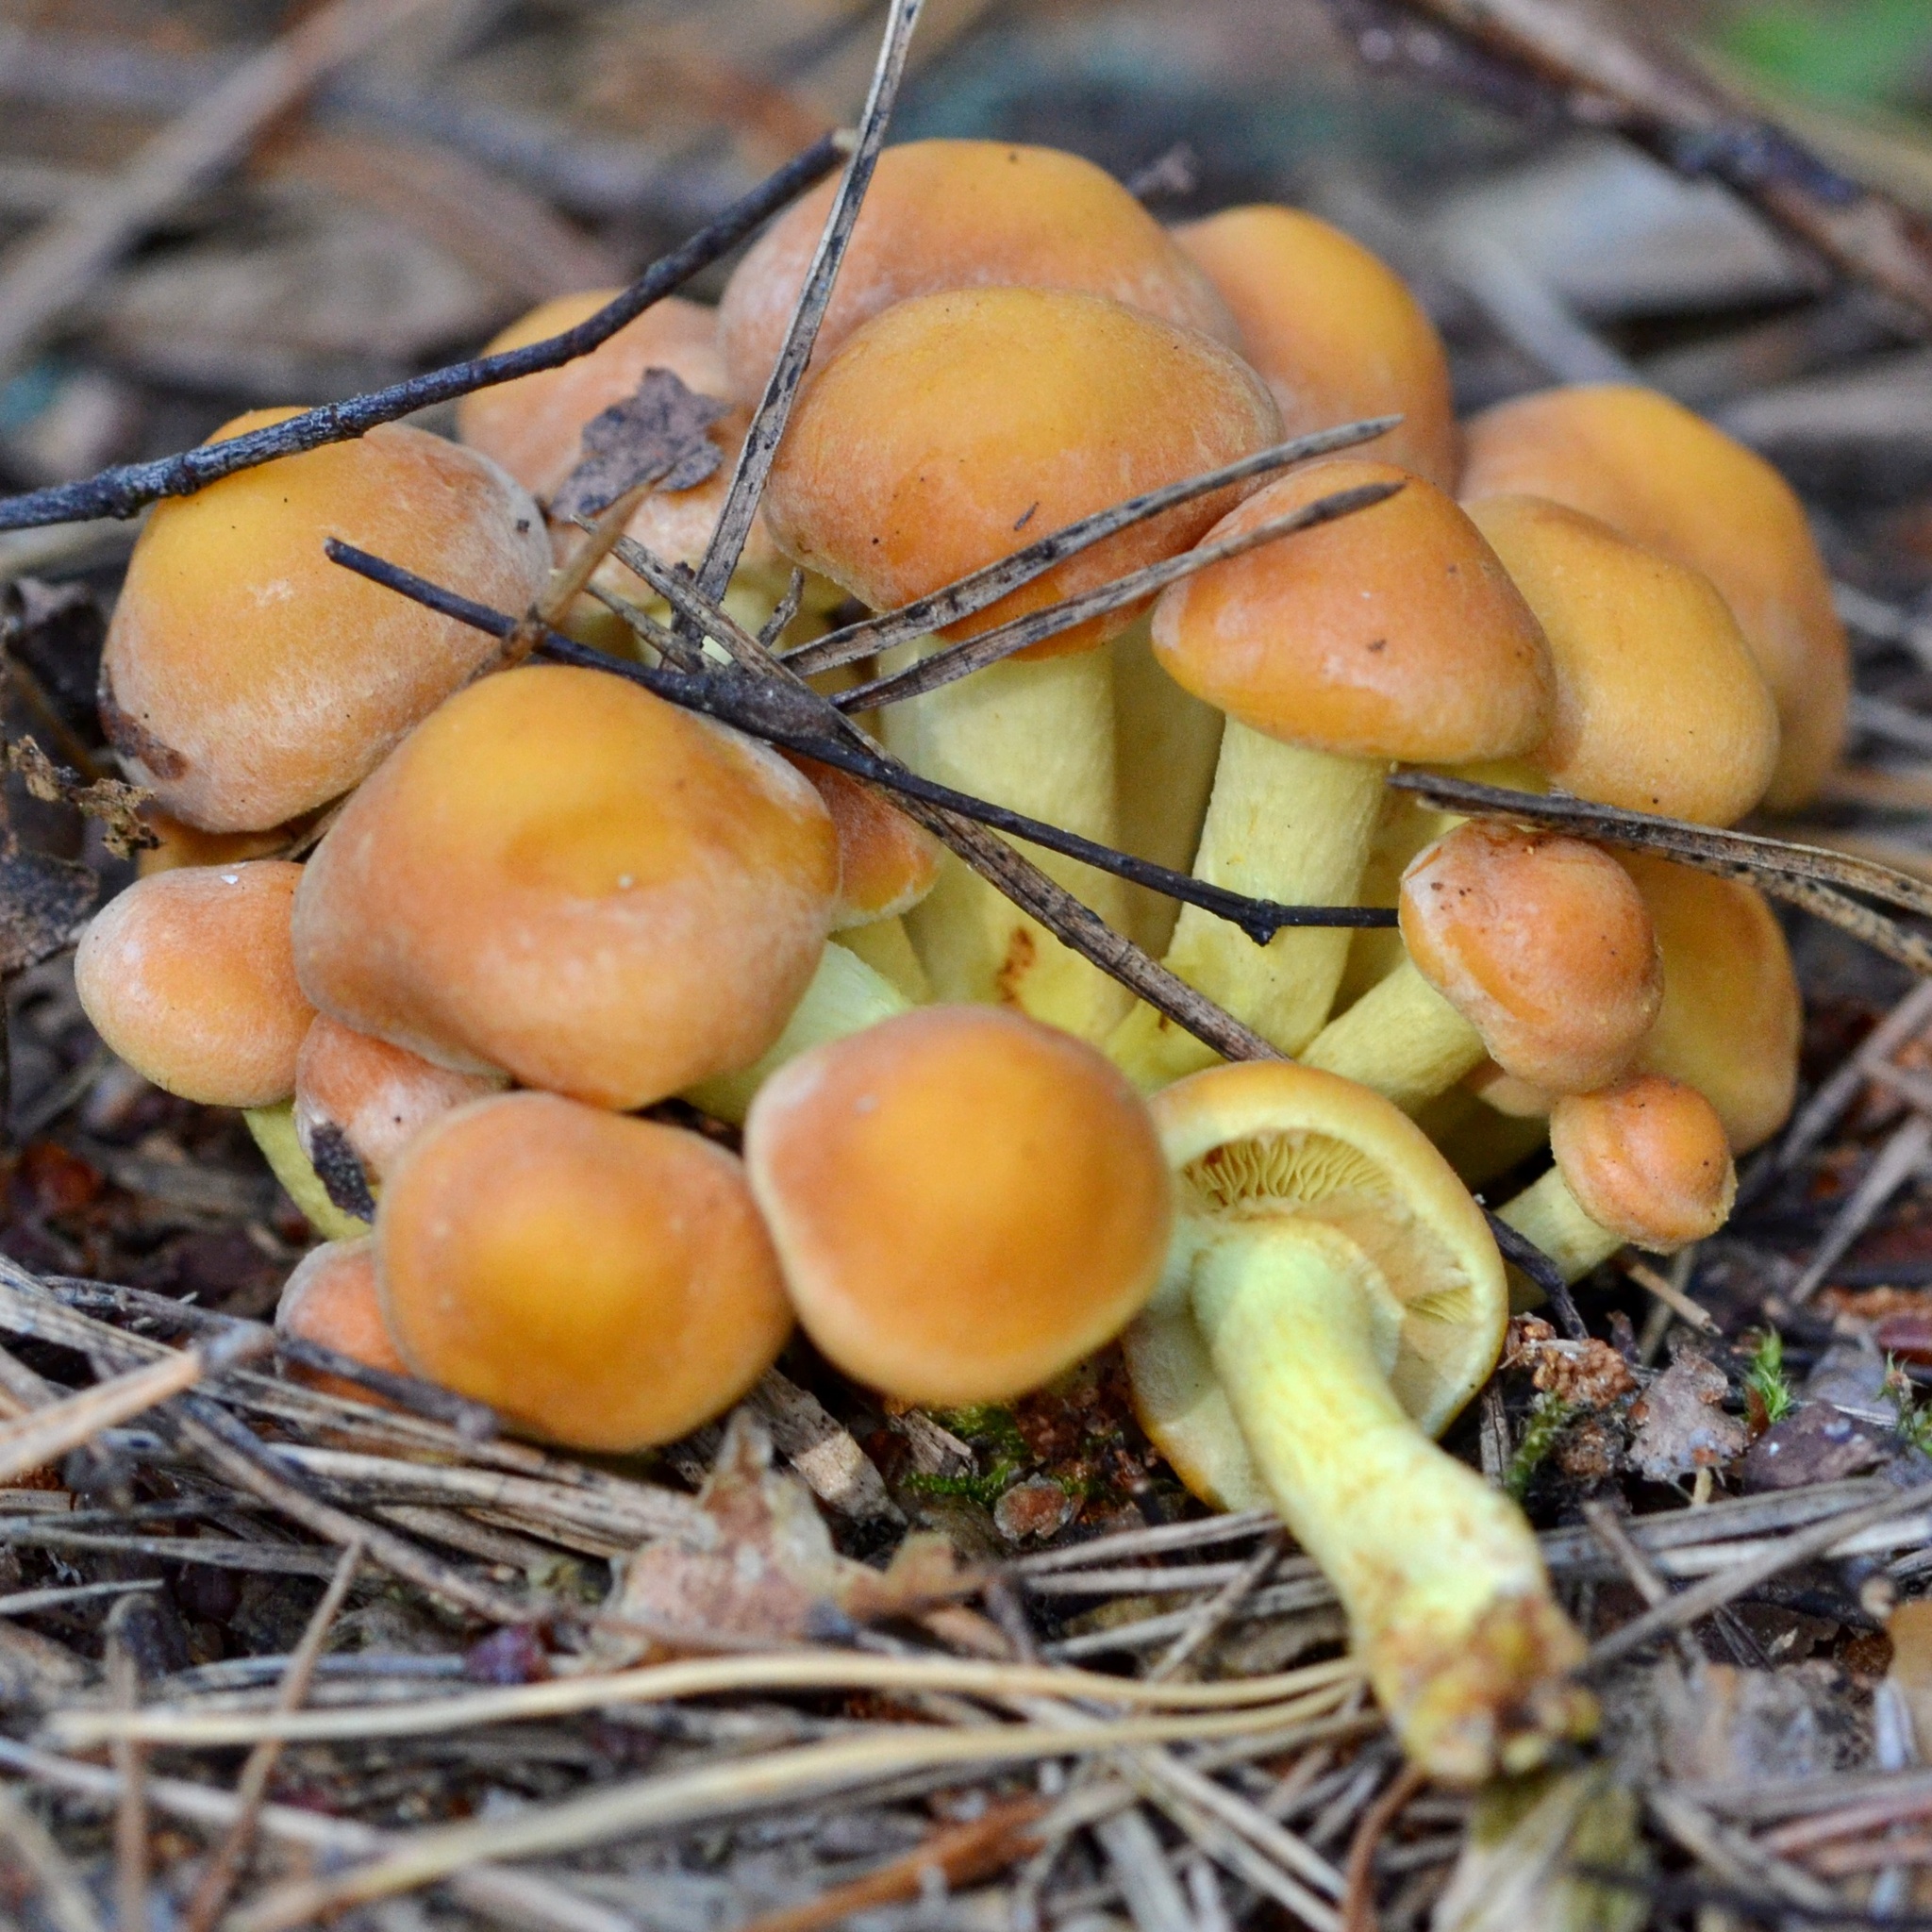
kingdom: Fungi
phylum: Basidiomycota
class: Agaricomycetes
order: Agaricales
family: Strophariaceae
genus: Hypholoma
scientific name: Hypholoma fasciculare
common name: Sulphur tuft
